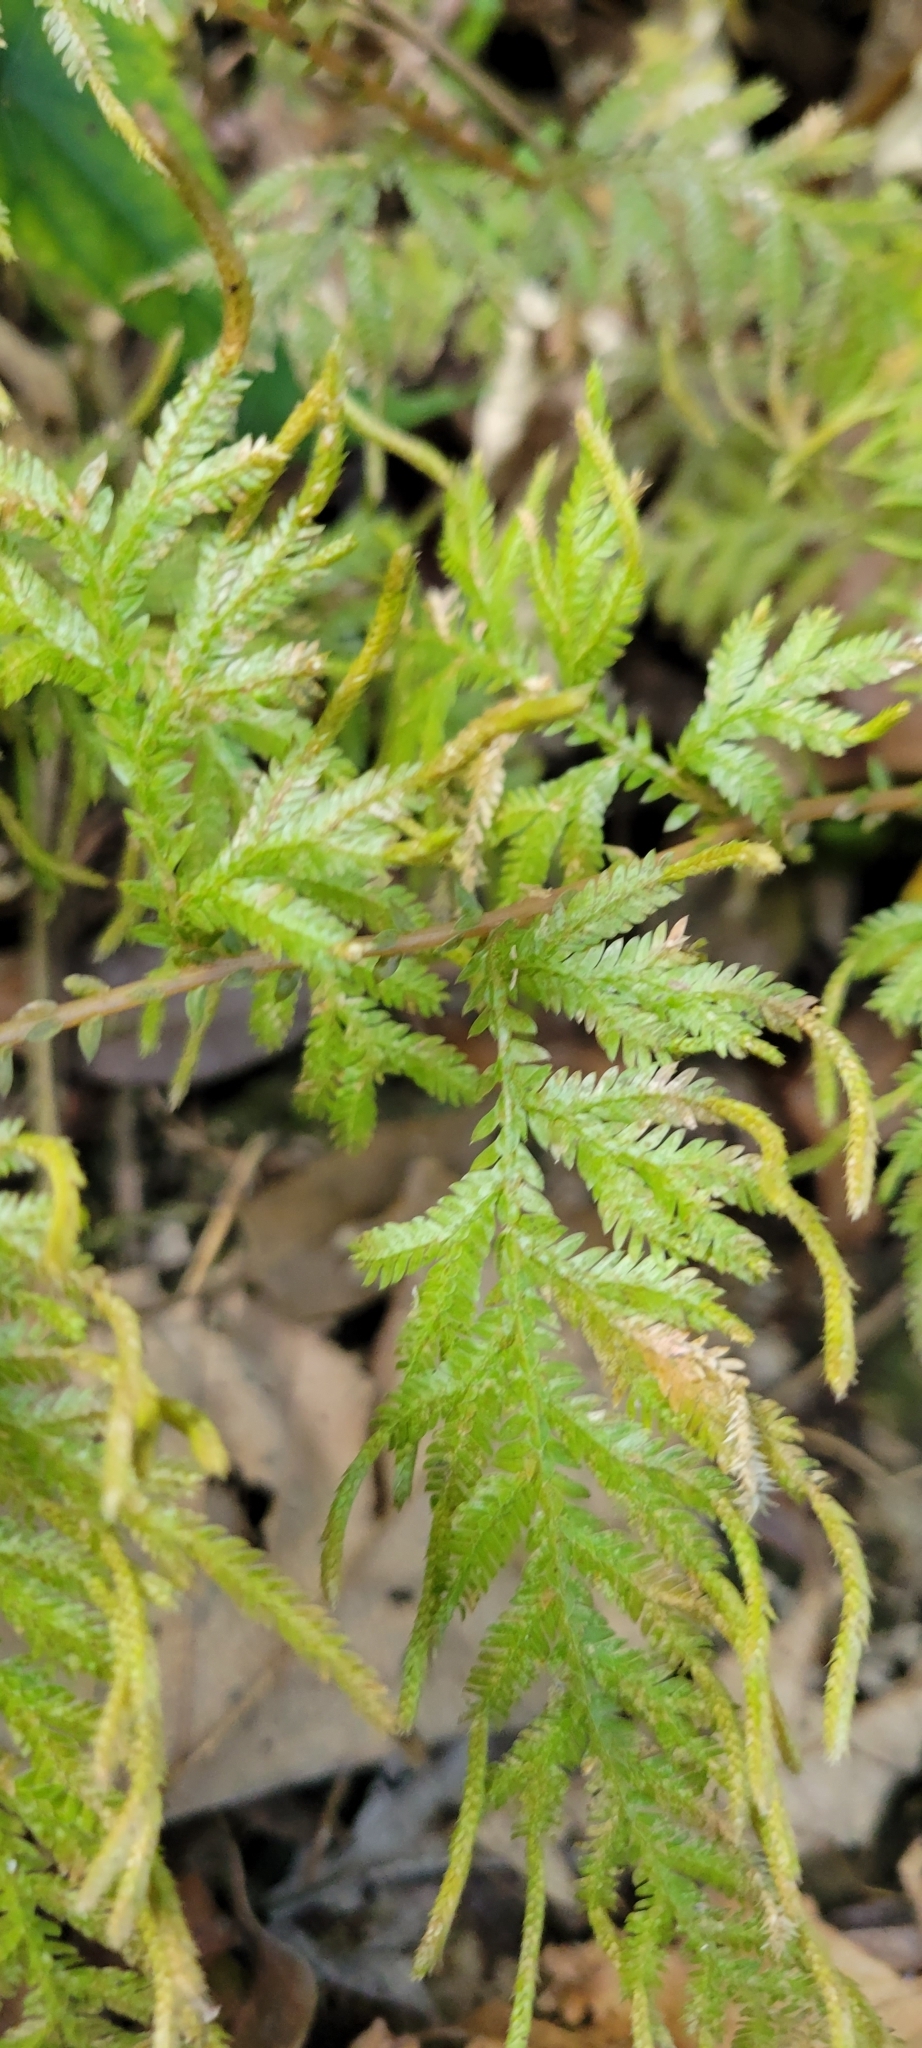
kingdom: Plantae
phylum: Tracheophyta
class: Lycopodiopsida
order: Selaginellales
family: Selaginellaceae
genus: Selaginella
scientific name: Selaginella delicatula
